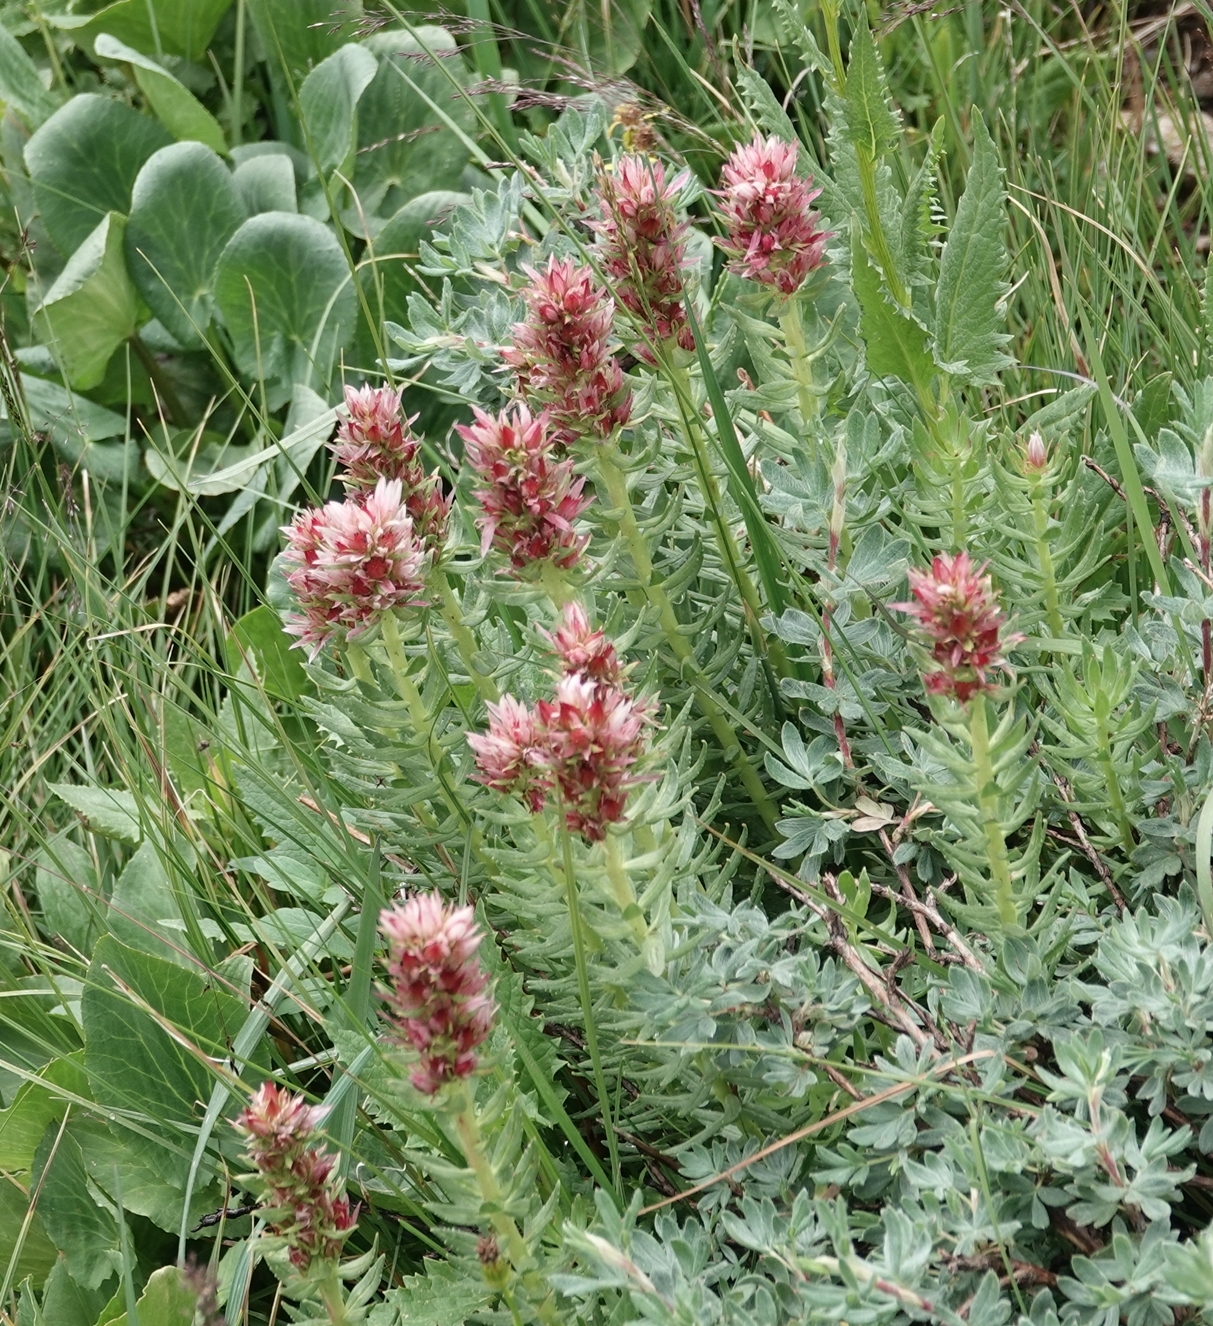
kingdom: Plantae
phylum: Tracheophyta
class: Magnoliopsida
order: Saxifragales
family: Crassulaceae
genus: Rhodiola
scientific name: Rhodiola rhodantha
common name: Red orpine
